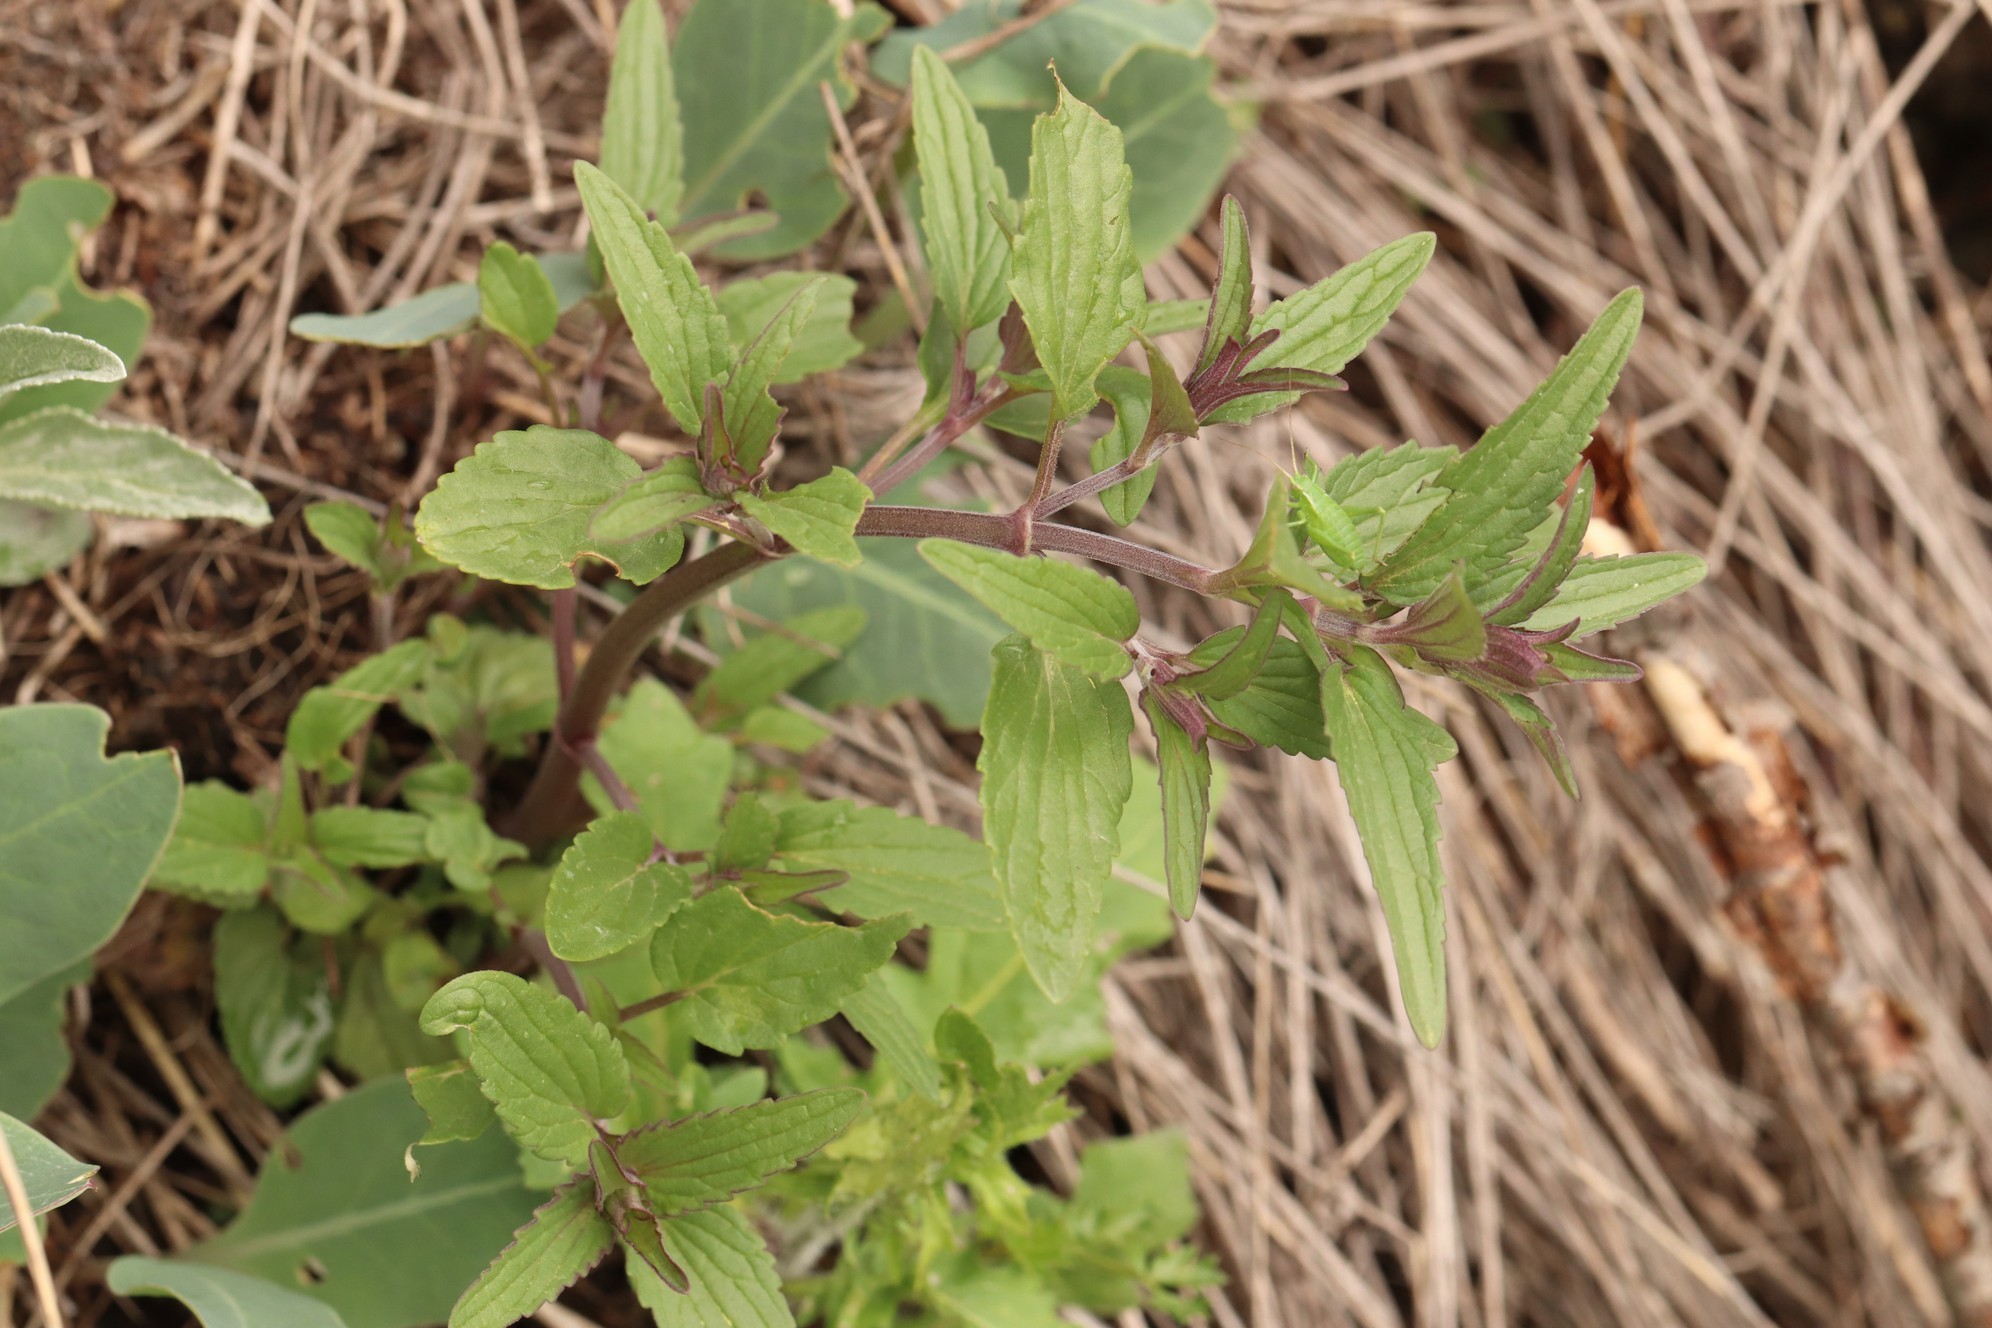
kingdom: Plantae
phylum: Tracheophyta
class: Magnoliopsida
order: Lamiales
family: Lamiaceae
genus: Dracocephalum
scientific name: Dracocephalum nutans
